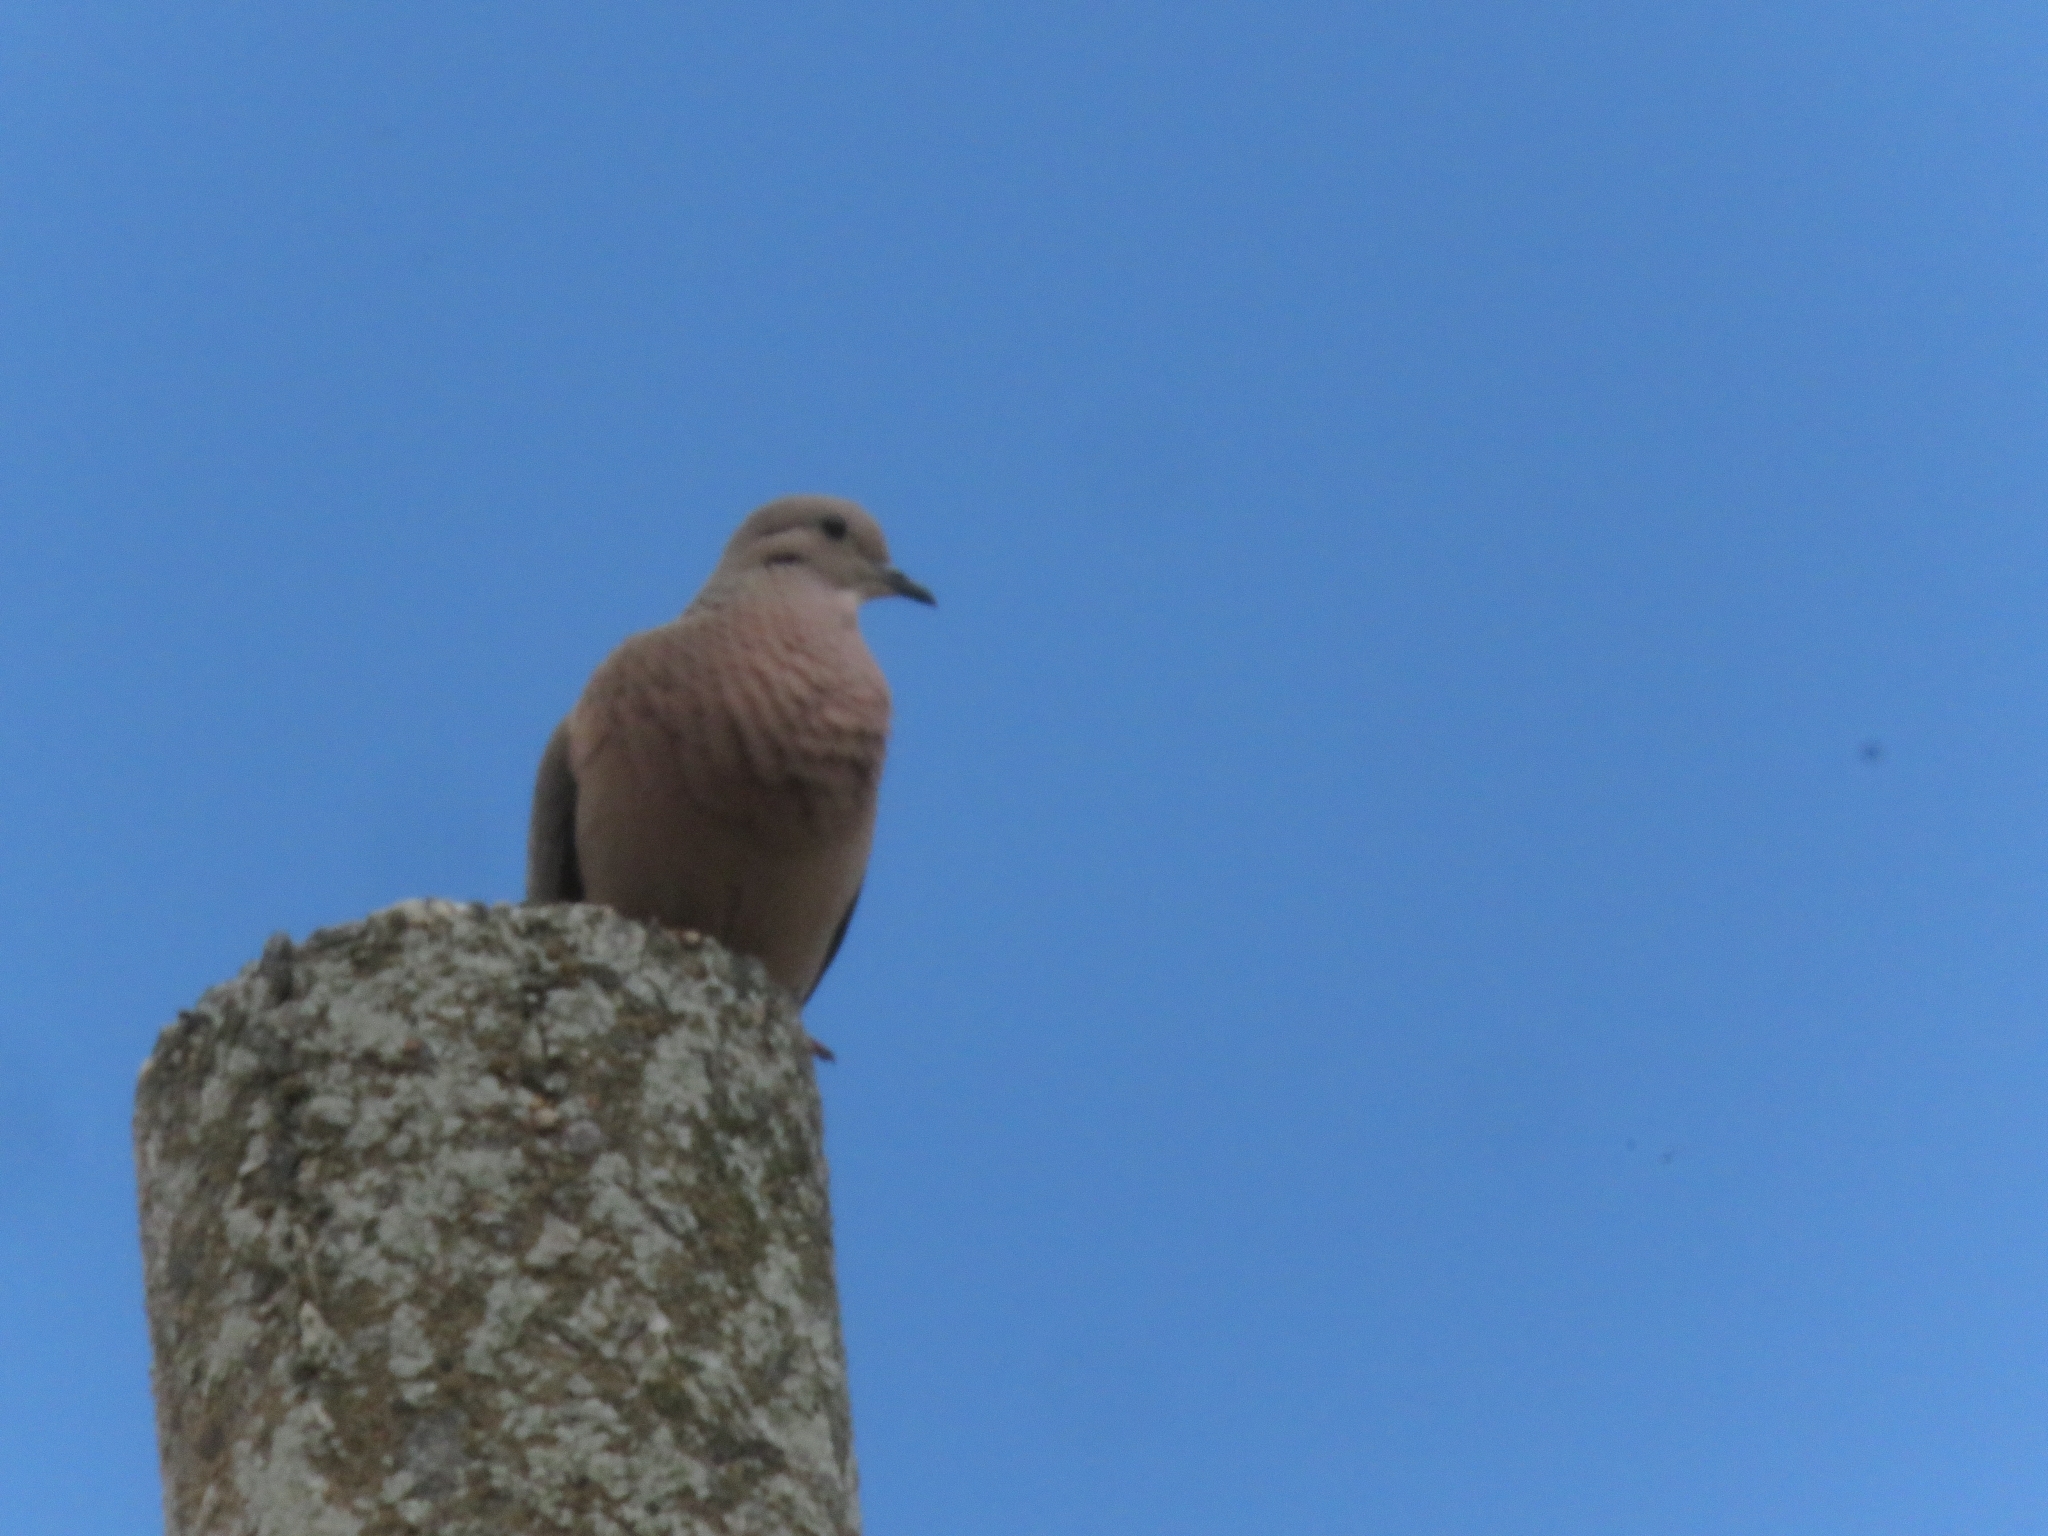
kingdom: Animalia
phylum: Chordata
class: Aves
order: Columbiformes
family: Columbidae
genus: Zenaida
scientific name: Zenaida auriculata
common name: Eared dove
